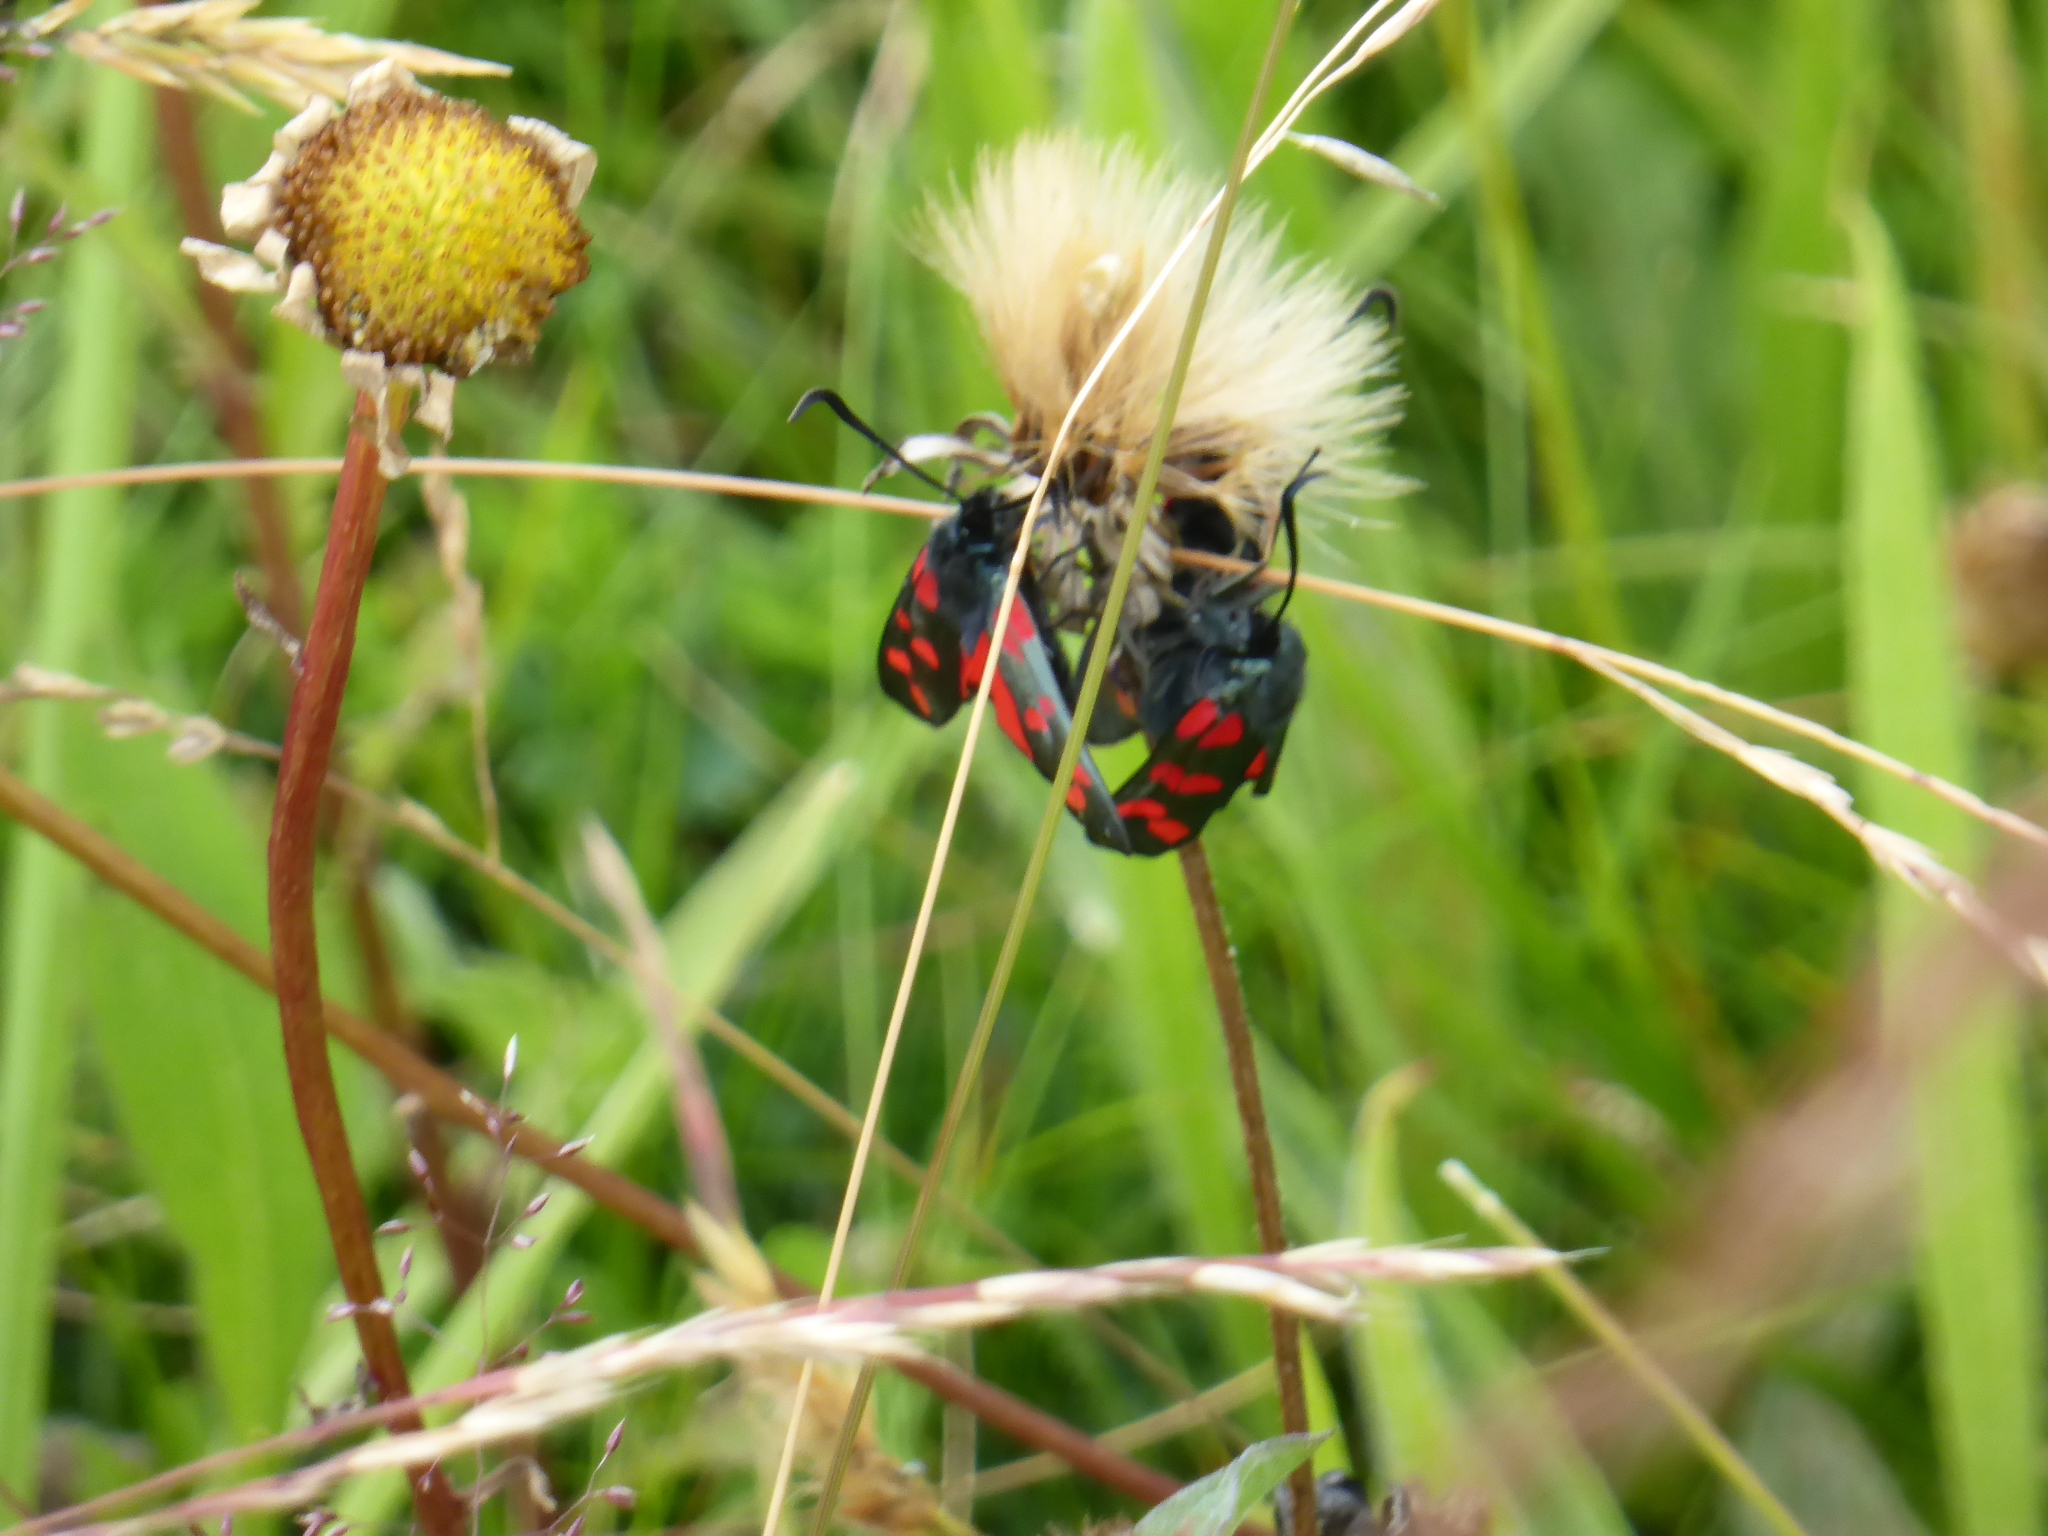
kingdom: Animalia
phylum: Arthropoda
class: Insecta
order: Lepidoptera
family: Zygaenidae
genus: Zygaena
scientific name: Zygaena filipendulae
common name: Six-spot burnet
